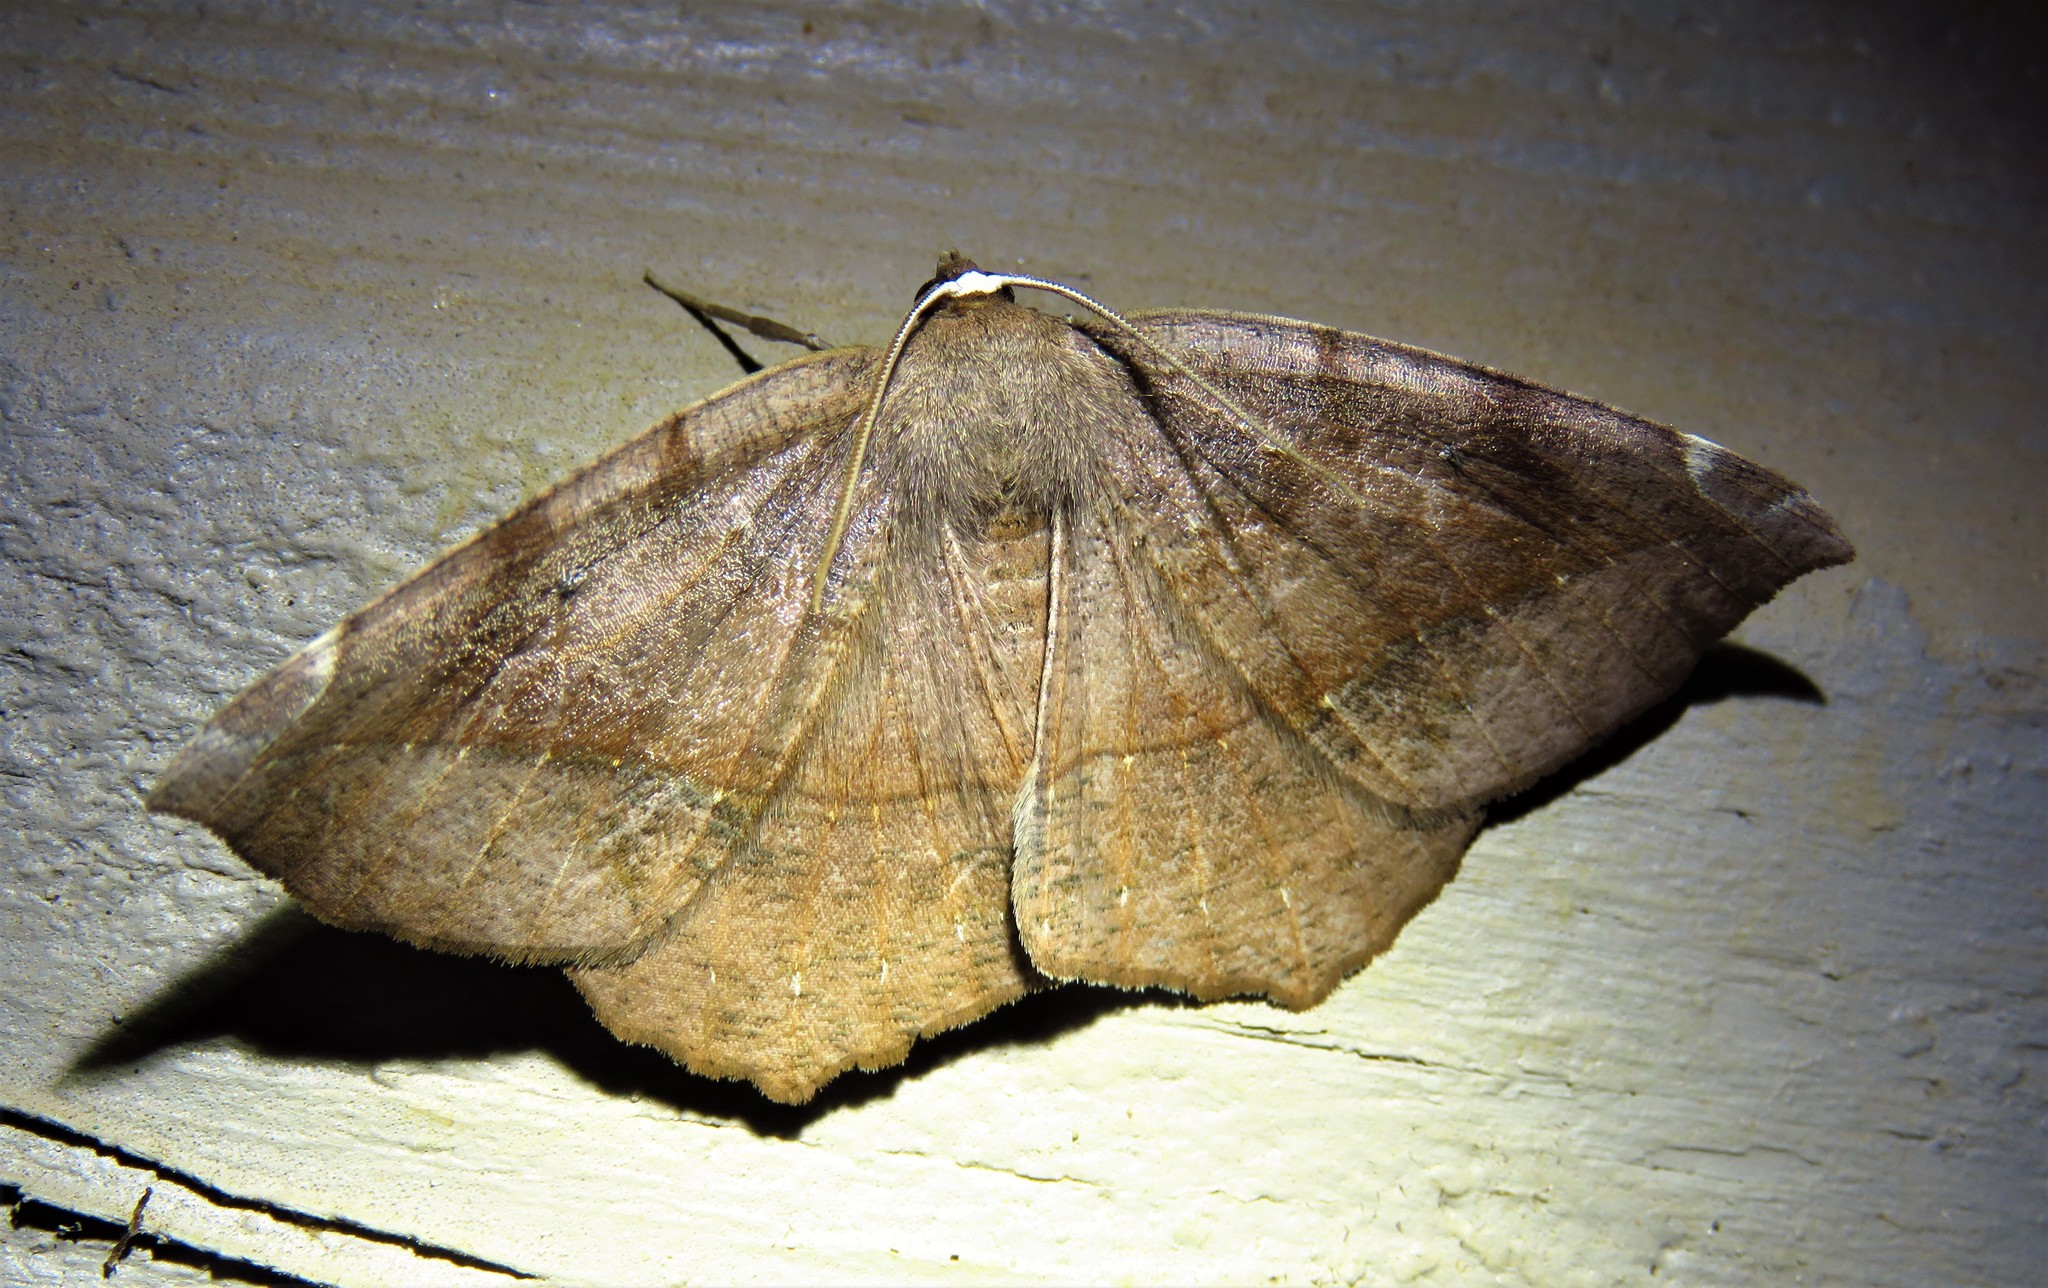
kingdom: Animalia
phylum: Arthropoda
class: Insecta
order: Lepidoptera
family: Geometridae
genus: Eutrapela
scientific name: Eutrapela clemataria
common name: Curved-toothed geometer
